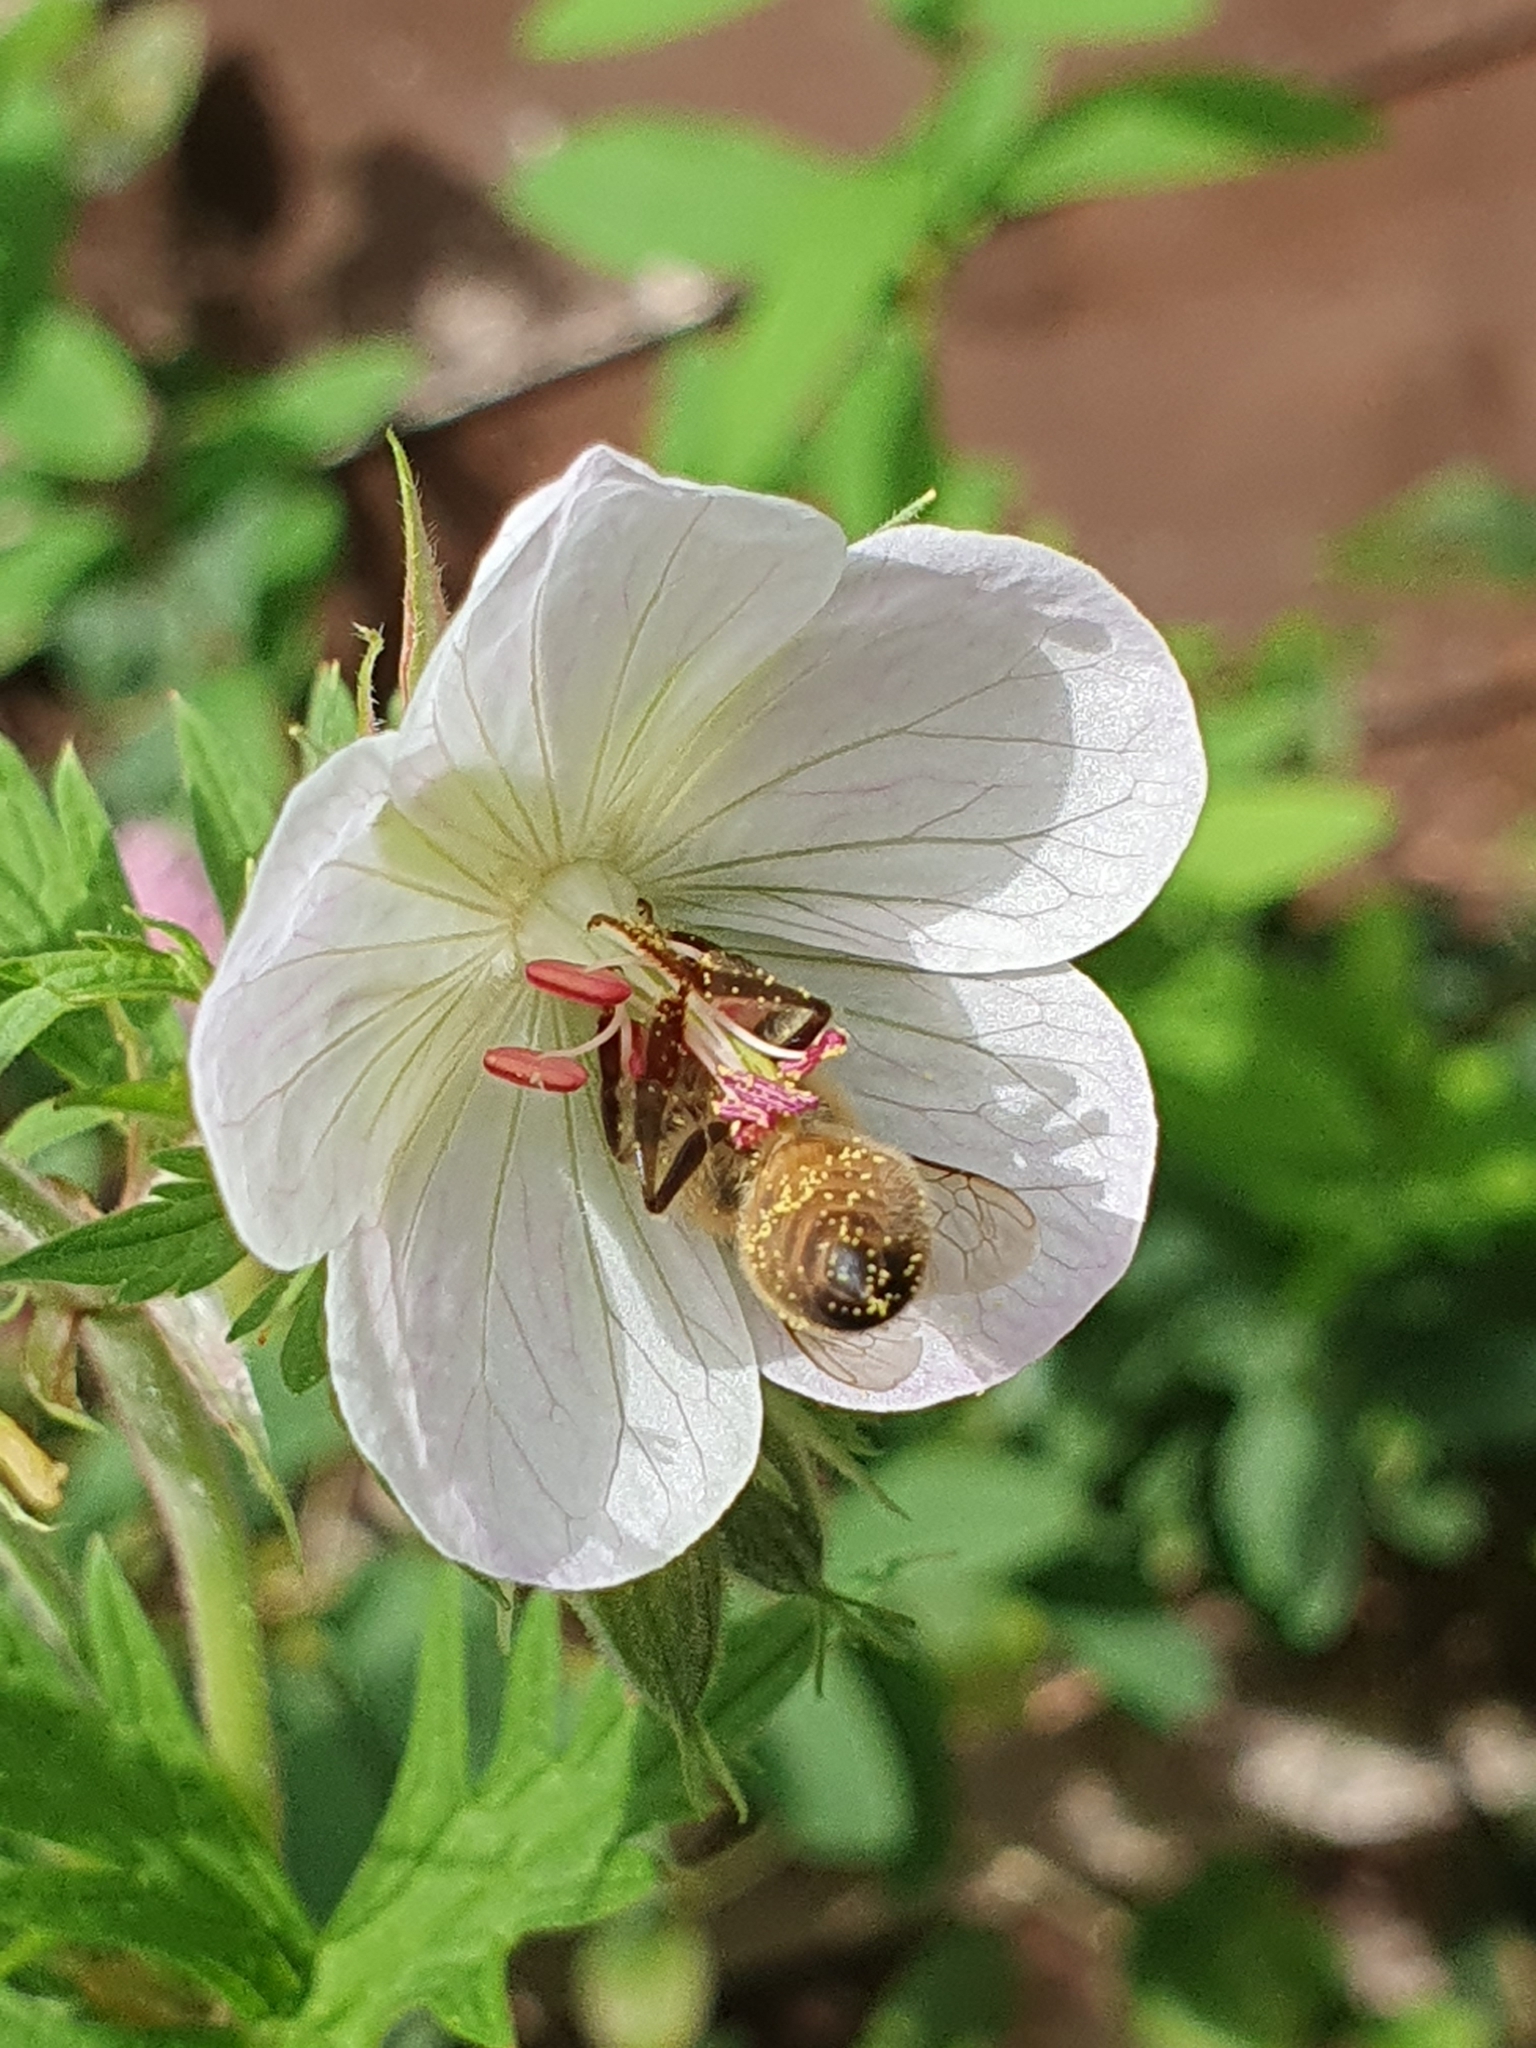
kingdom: Animalia
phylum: Arthropoda
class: Insecta
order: Hymenoptera
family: Apidae
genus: Apis
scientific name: Apis mellifera
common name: Honey bee
